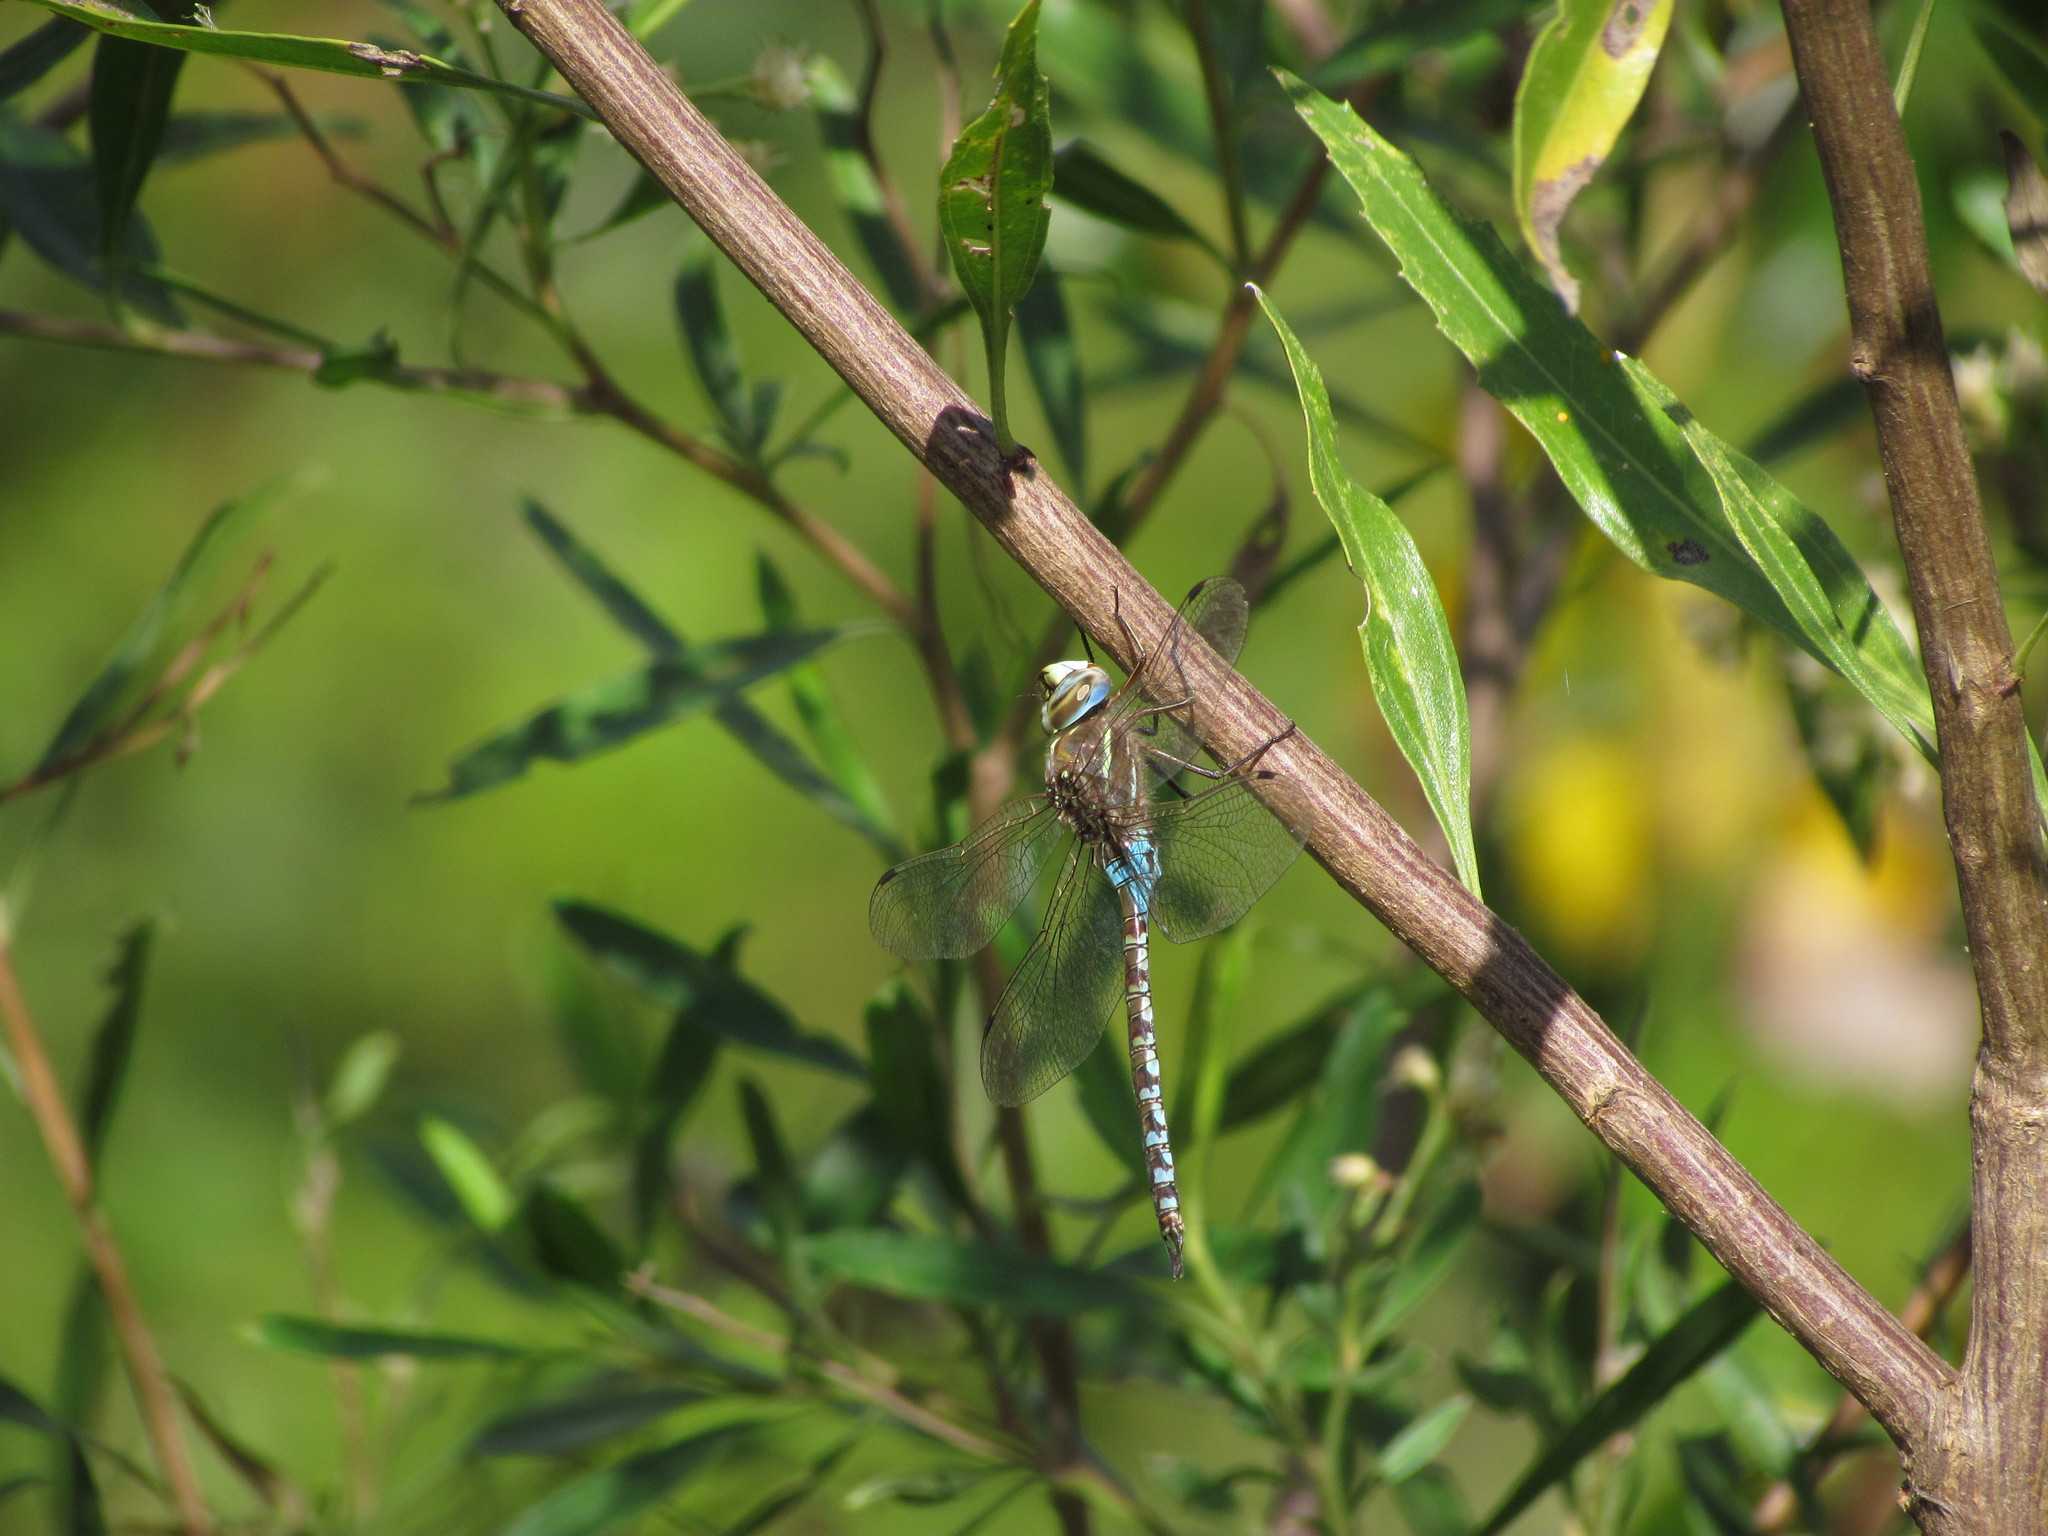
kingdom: Animalia
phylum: Arthropoda
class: Insecta
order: Odonata
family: Aeshnidae
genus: Rhionaeschna
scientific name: Rhionaeschna bonariensis
